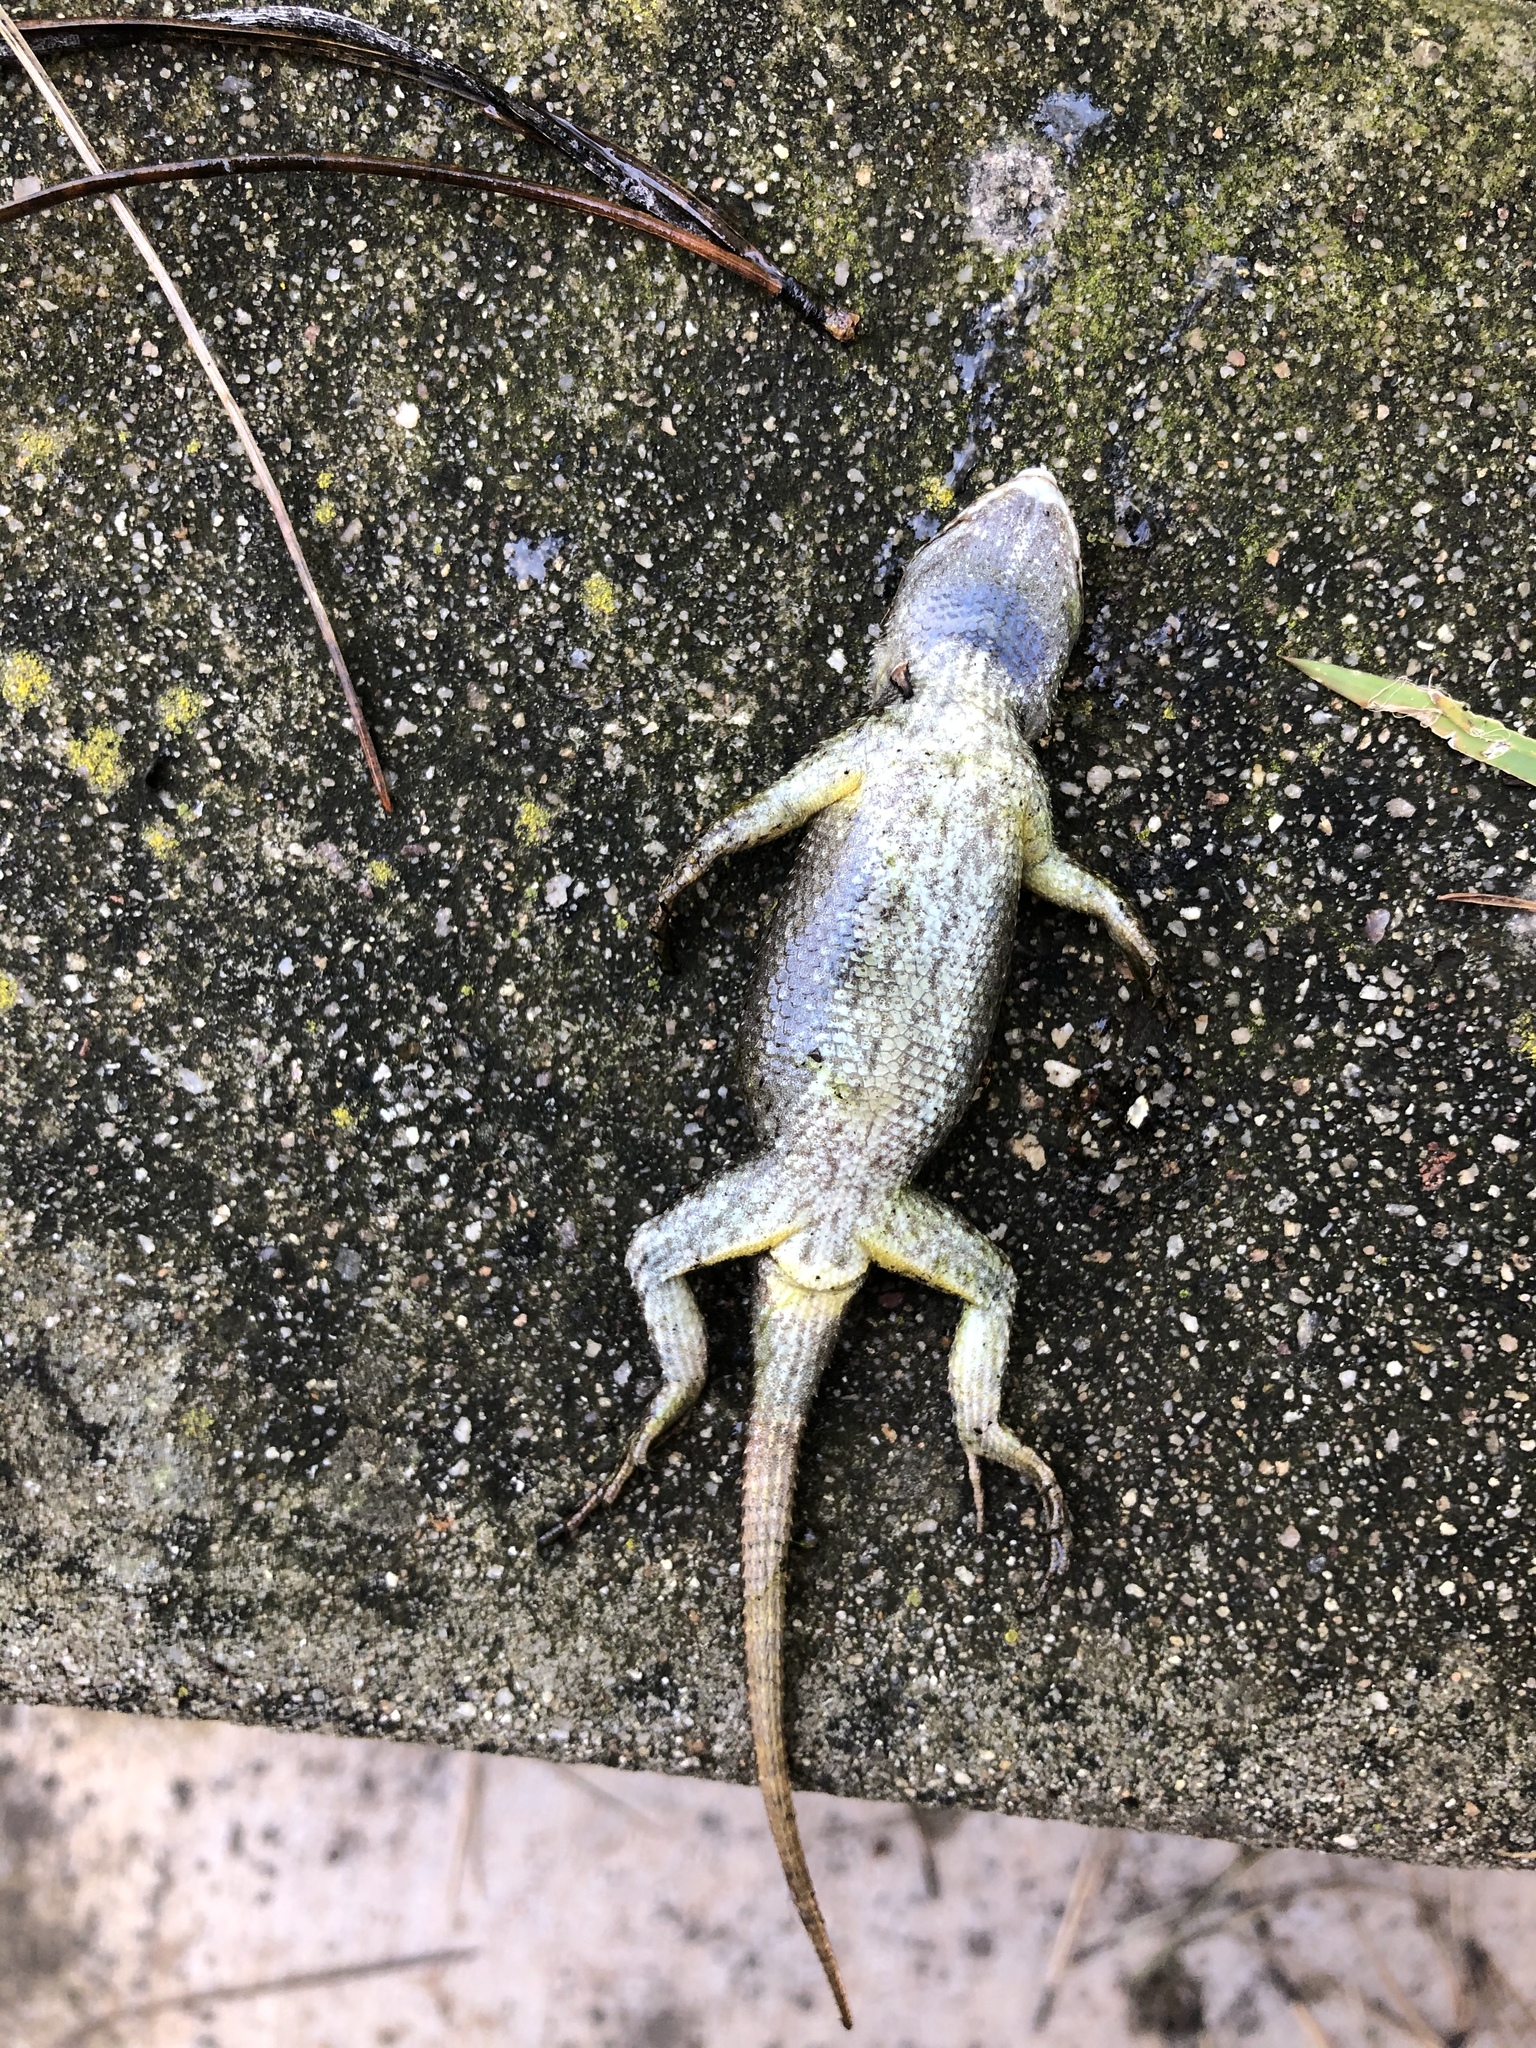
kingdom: Animalia
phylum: Chordata
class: Squamata
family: Phrynosomatidae
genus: Sceloporus
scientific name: Sceloporus occidentalis
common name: Western fence lizard
